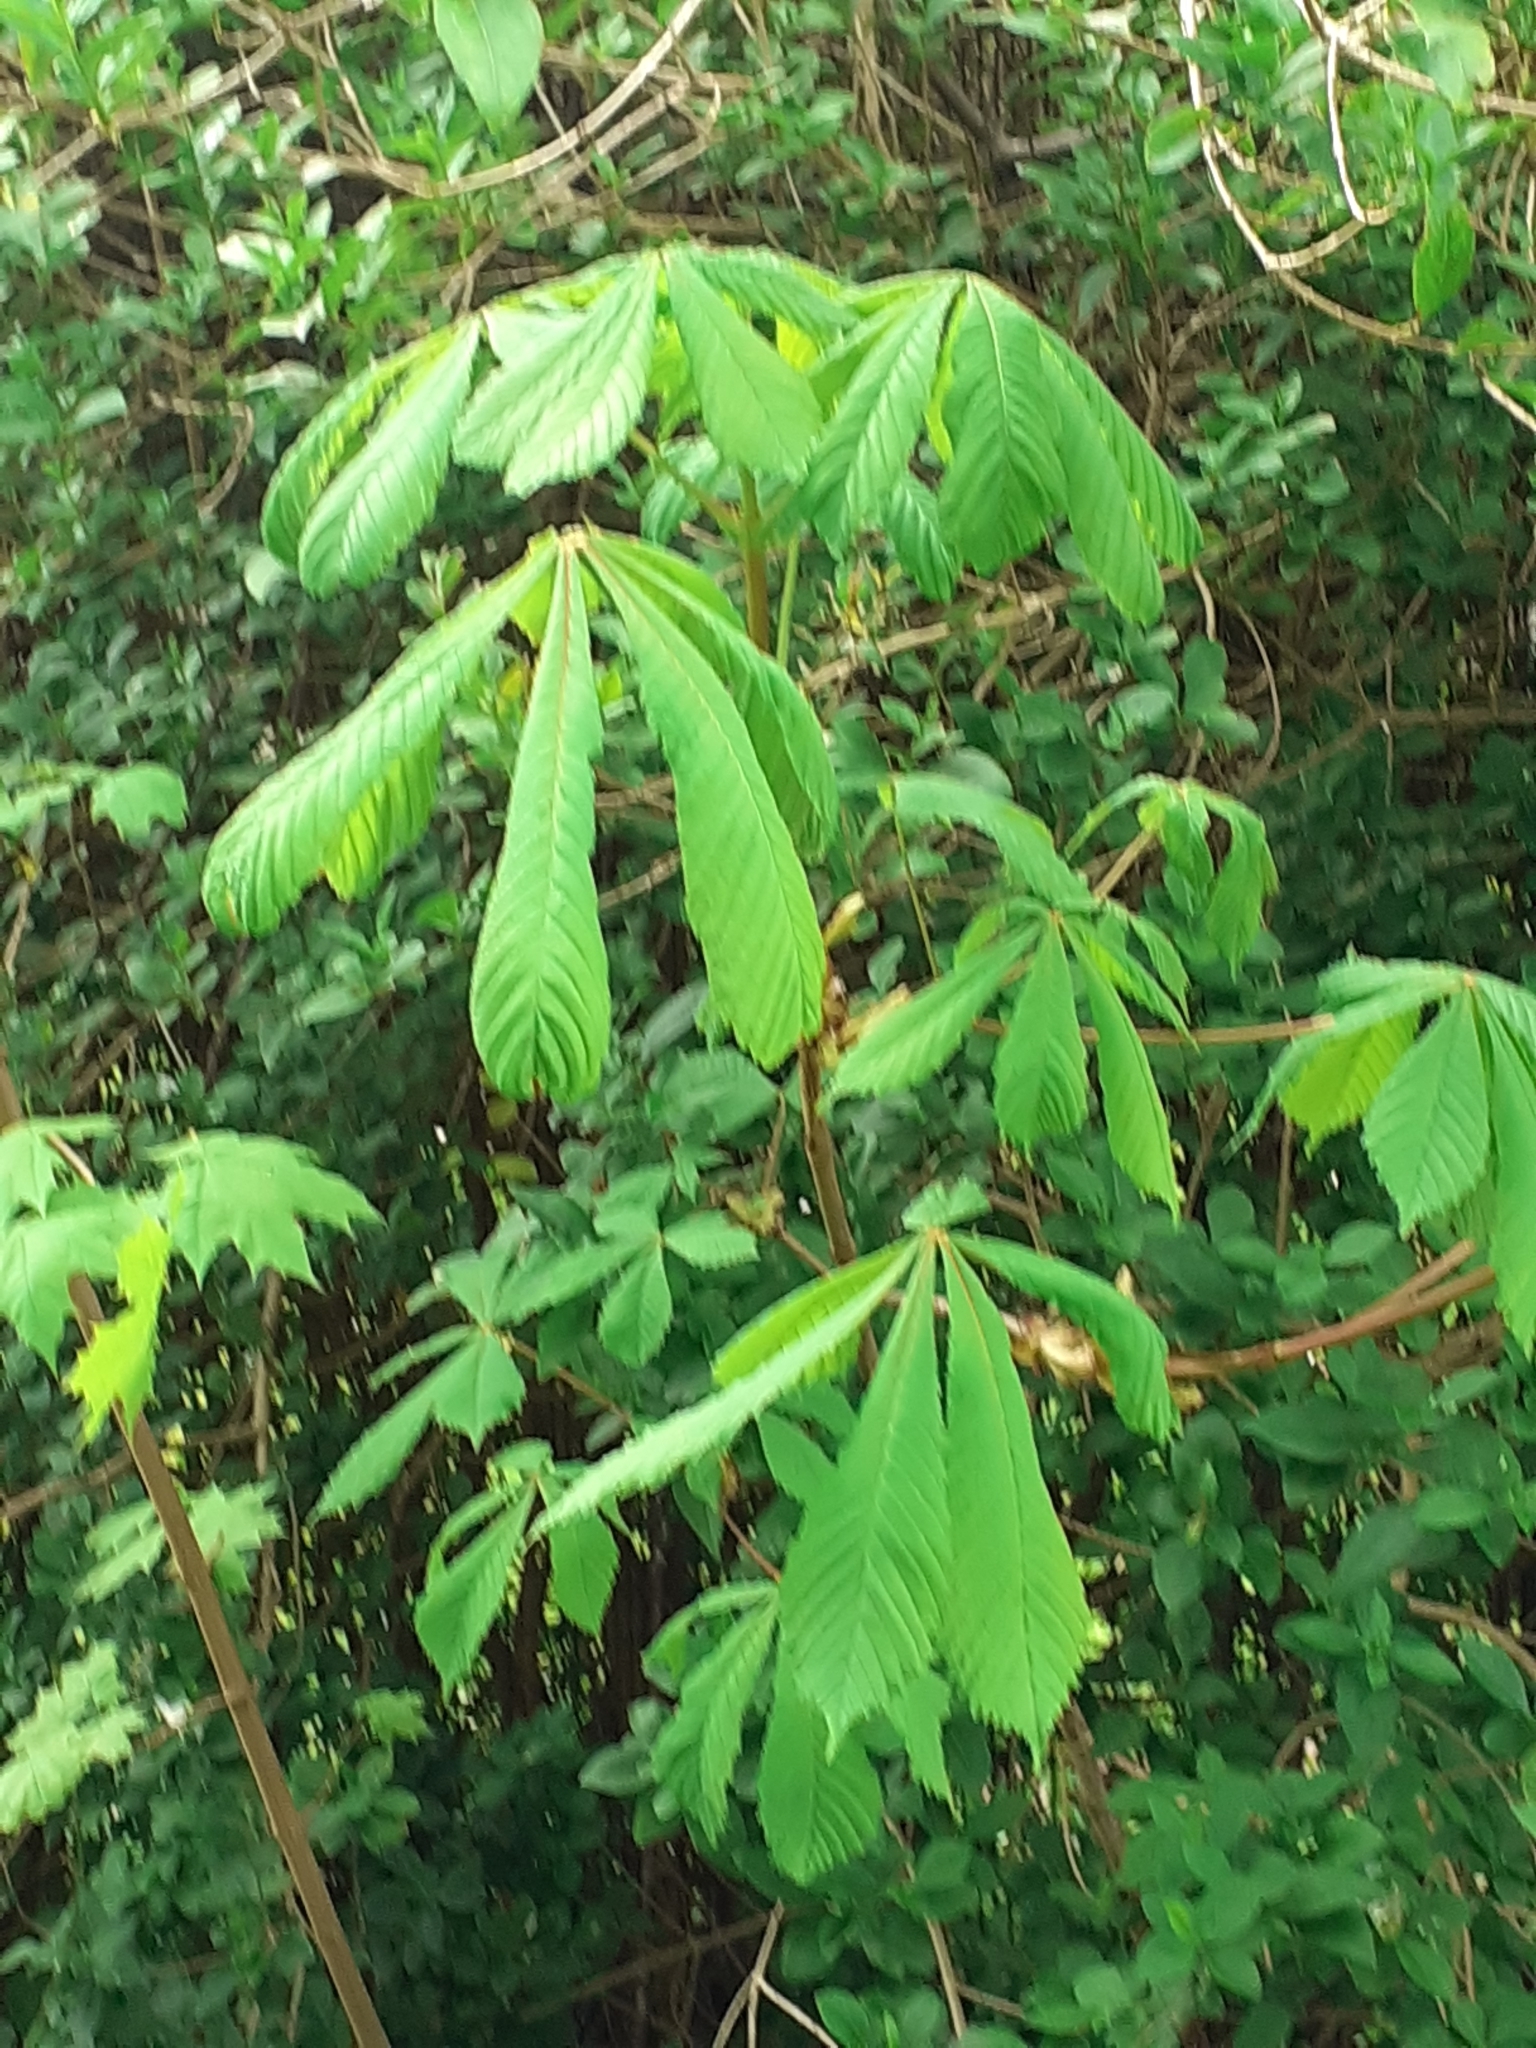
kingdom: Plantae
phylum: Tracheophyta
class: Magnoliopsida
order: Sapindales
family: Sapindaceae
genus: Aesculus
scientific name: Aesculus hippocastanum
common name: Horse-chestnut
